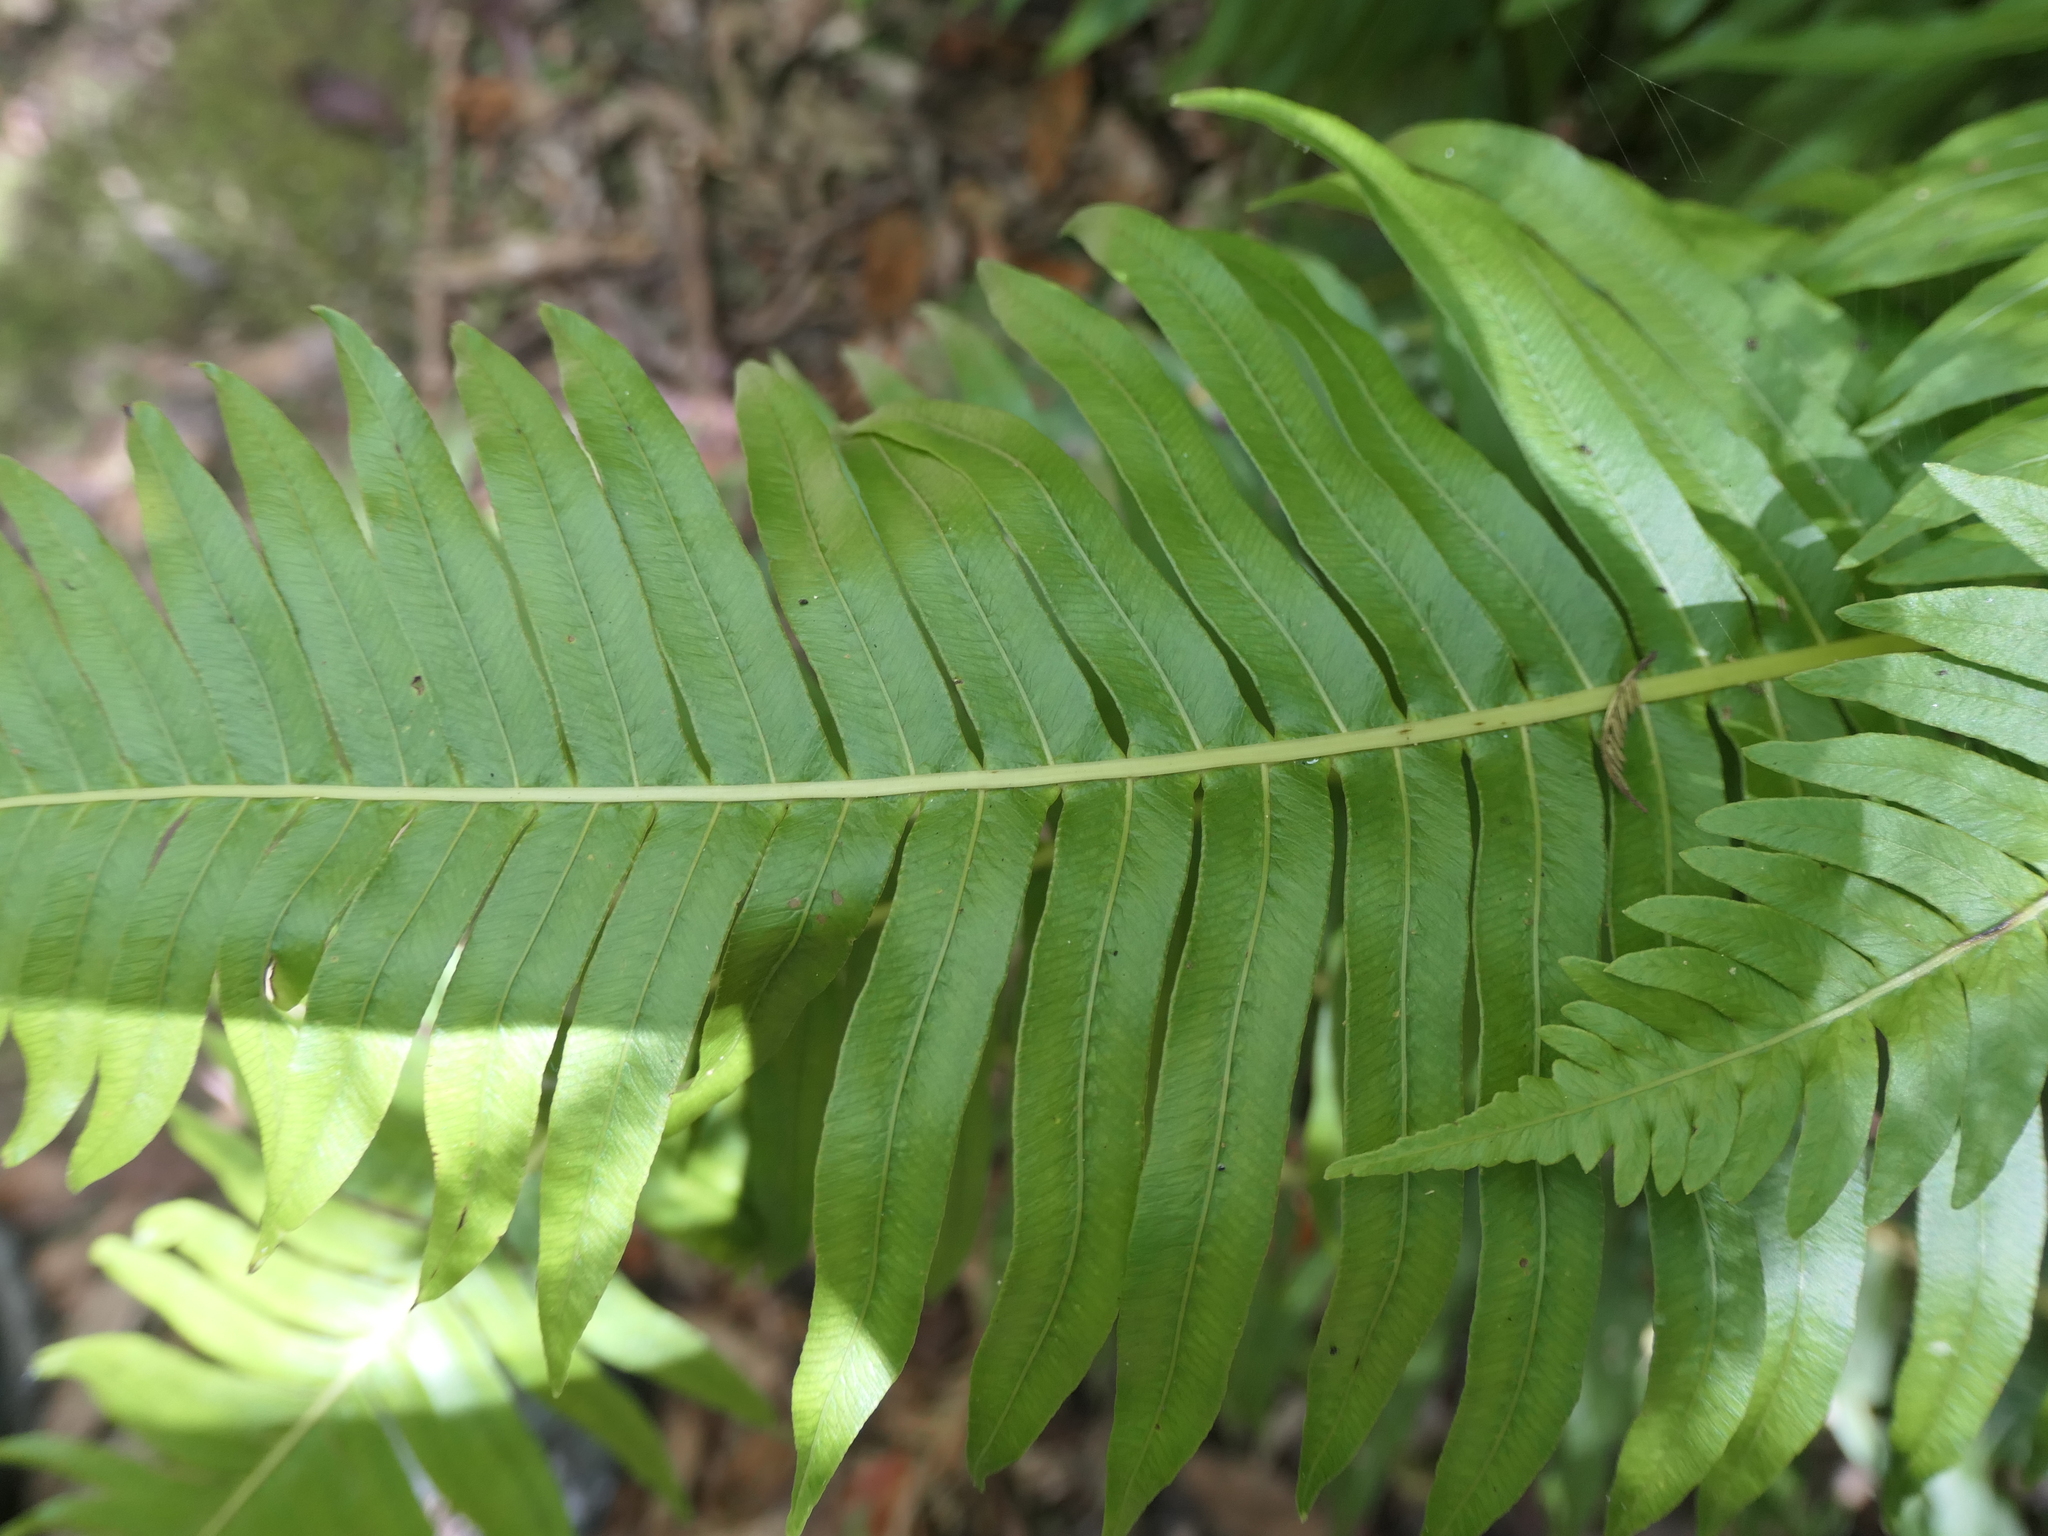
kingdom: Plantae
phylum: Tracheophyta
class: Polypodiopsida
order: Polypodiales
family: Blechnaceae
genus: Lomaria
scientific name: Lomaria nuda
